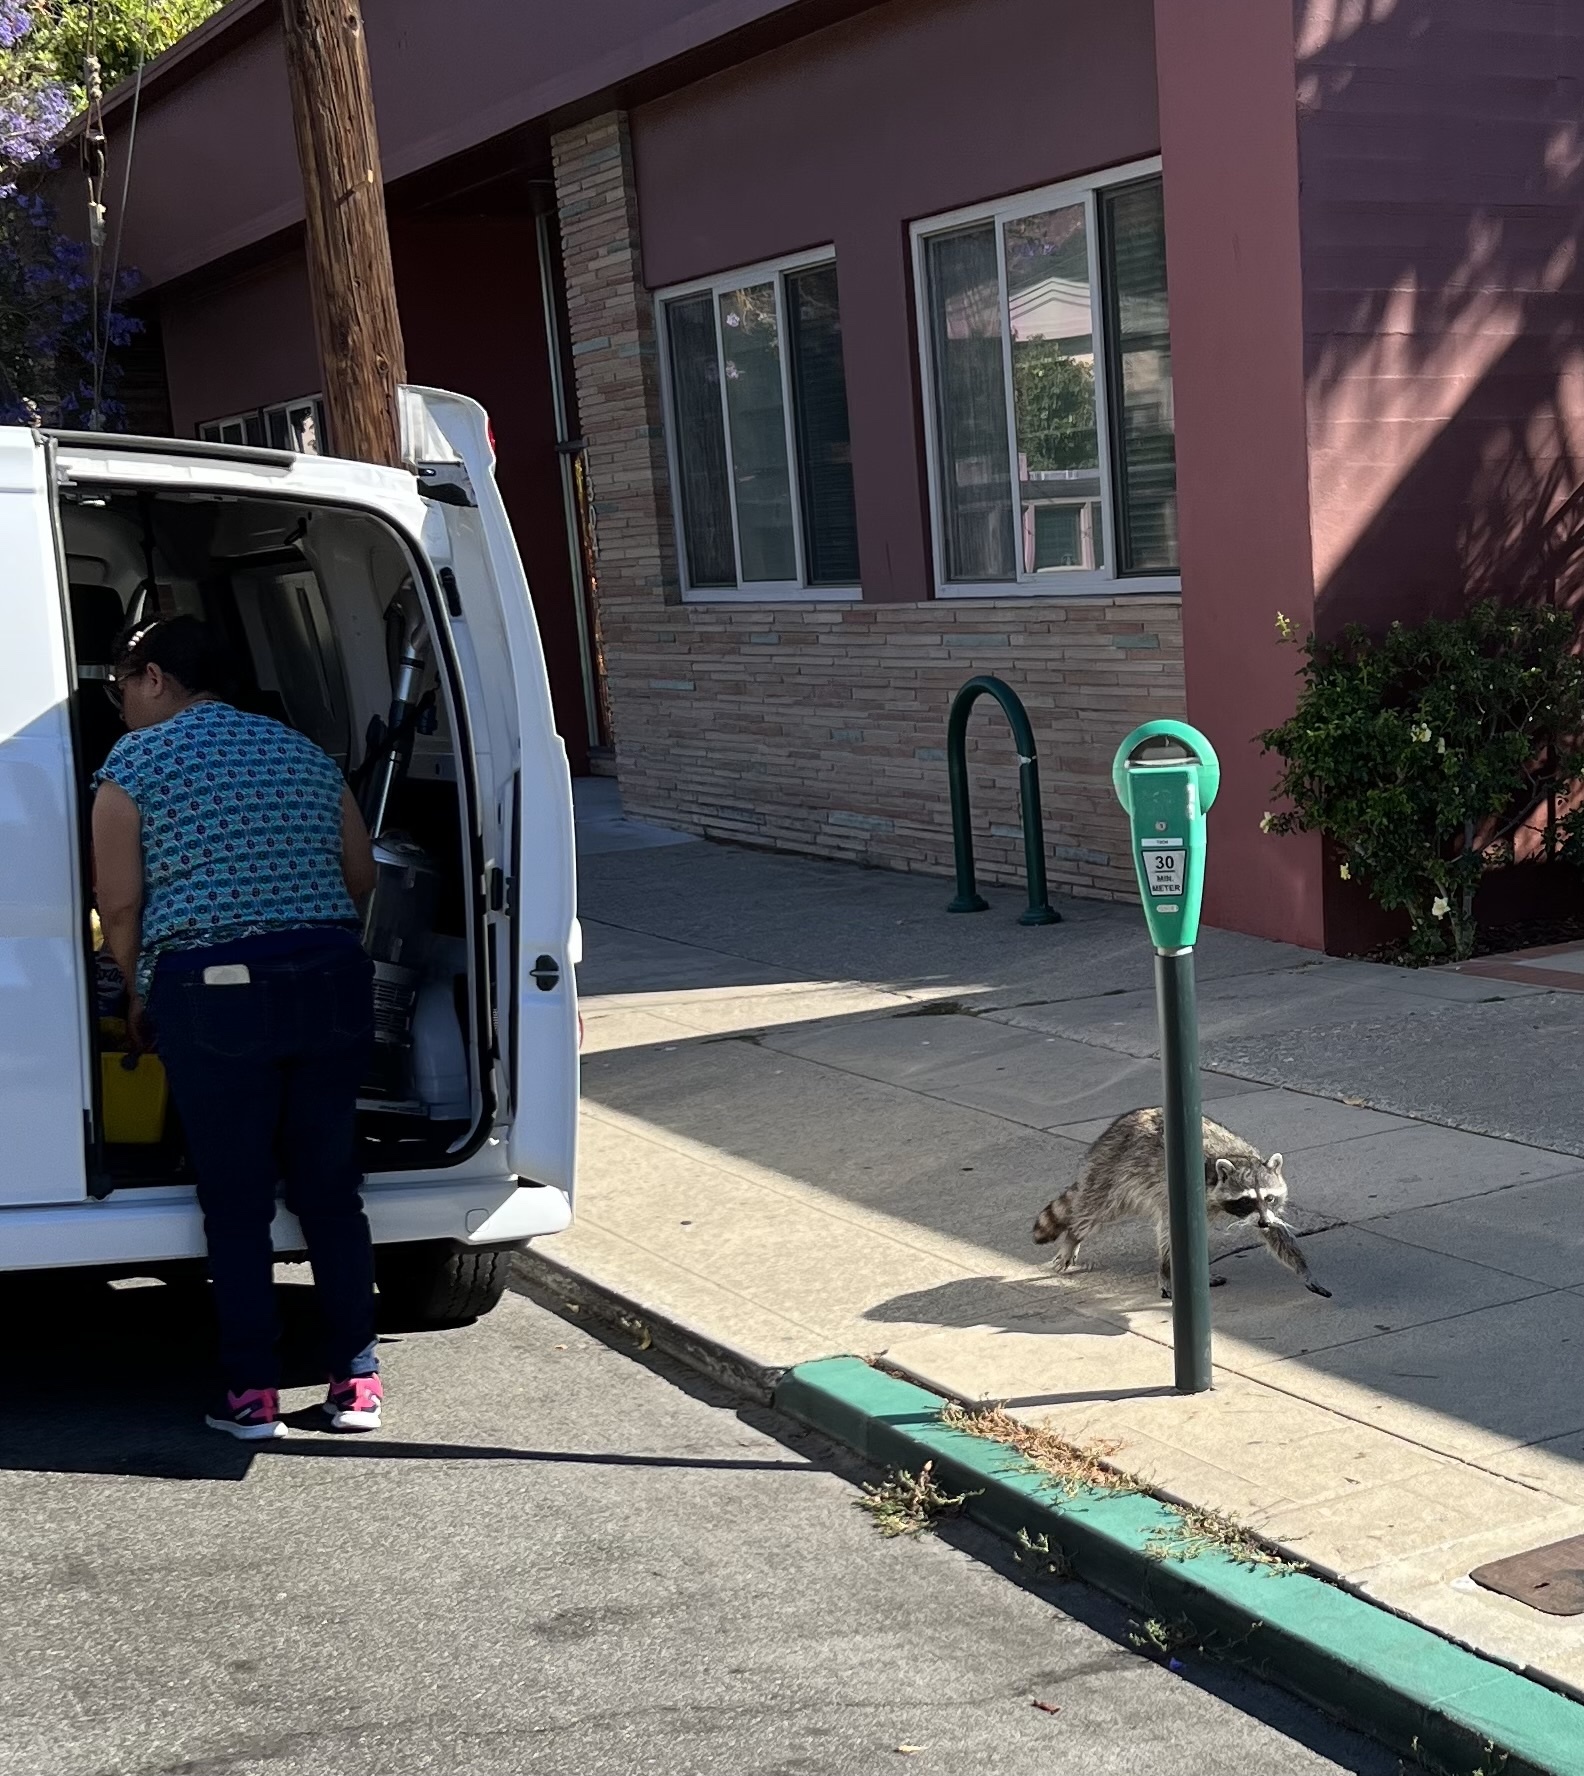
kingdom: Animalia
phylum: Chordata
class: Mammalia
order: Carnivora
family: Procyonidae
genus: Procyon
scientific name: Procyon lotor
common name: Raccoon
